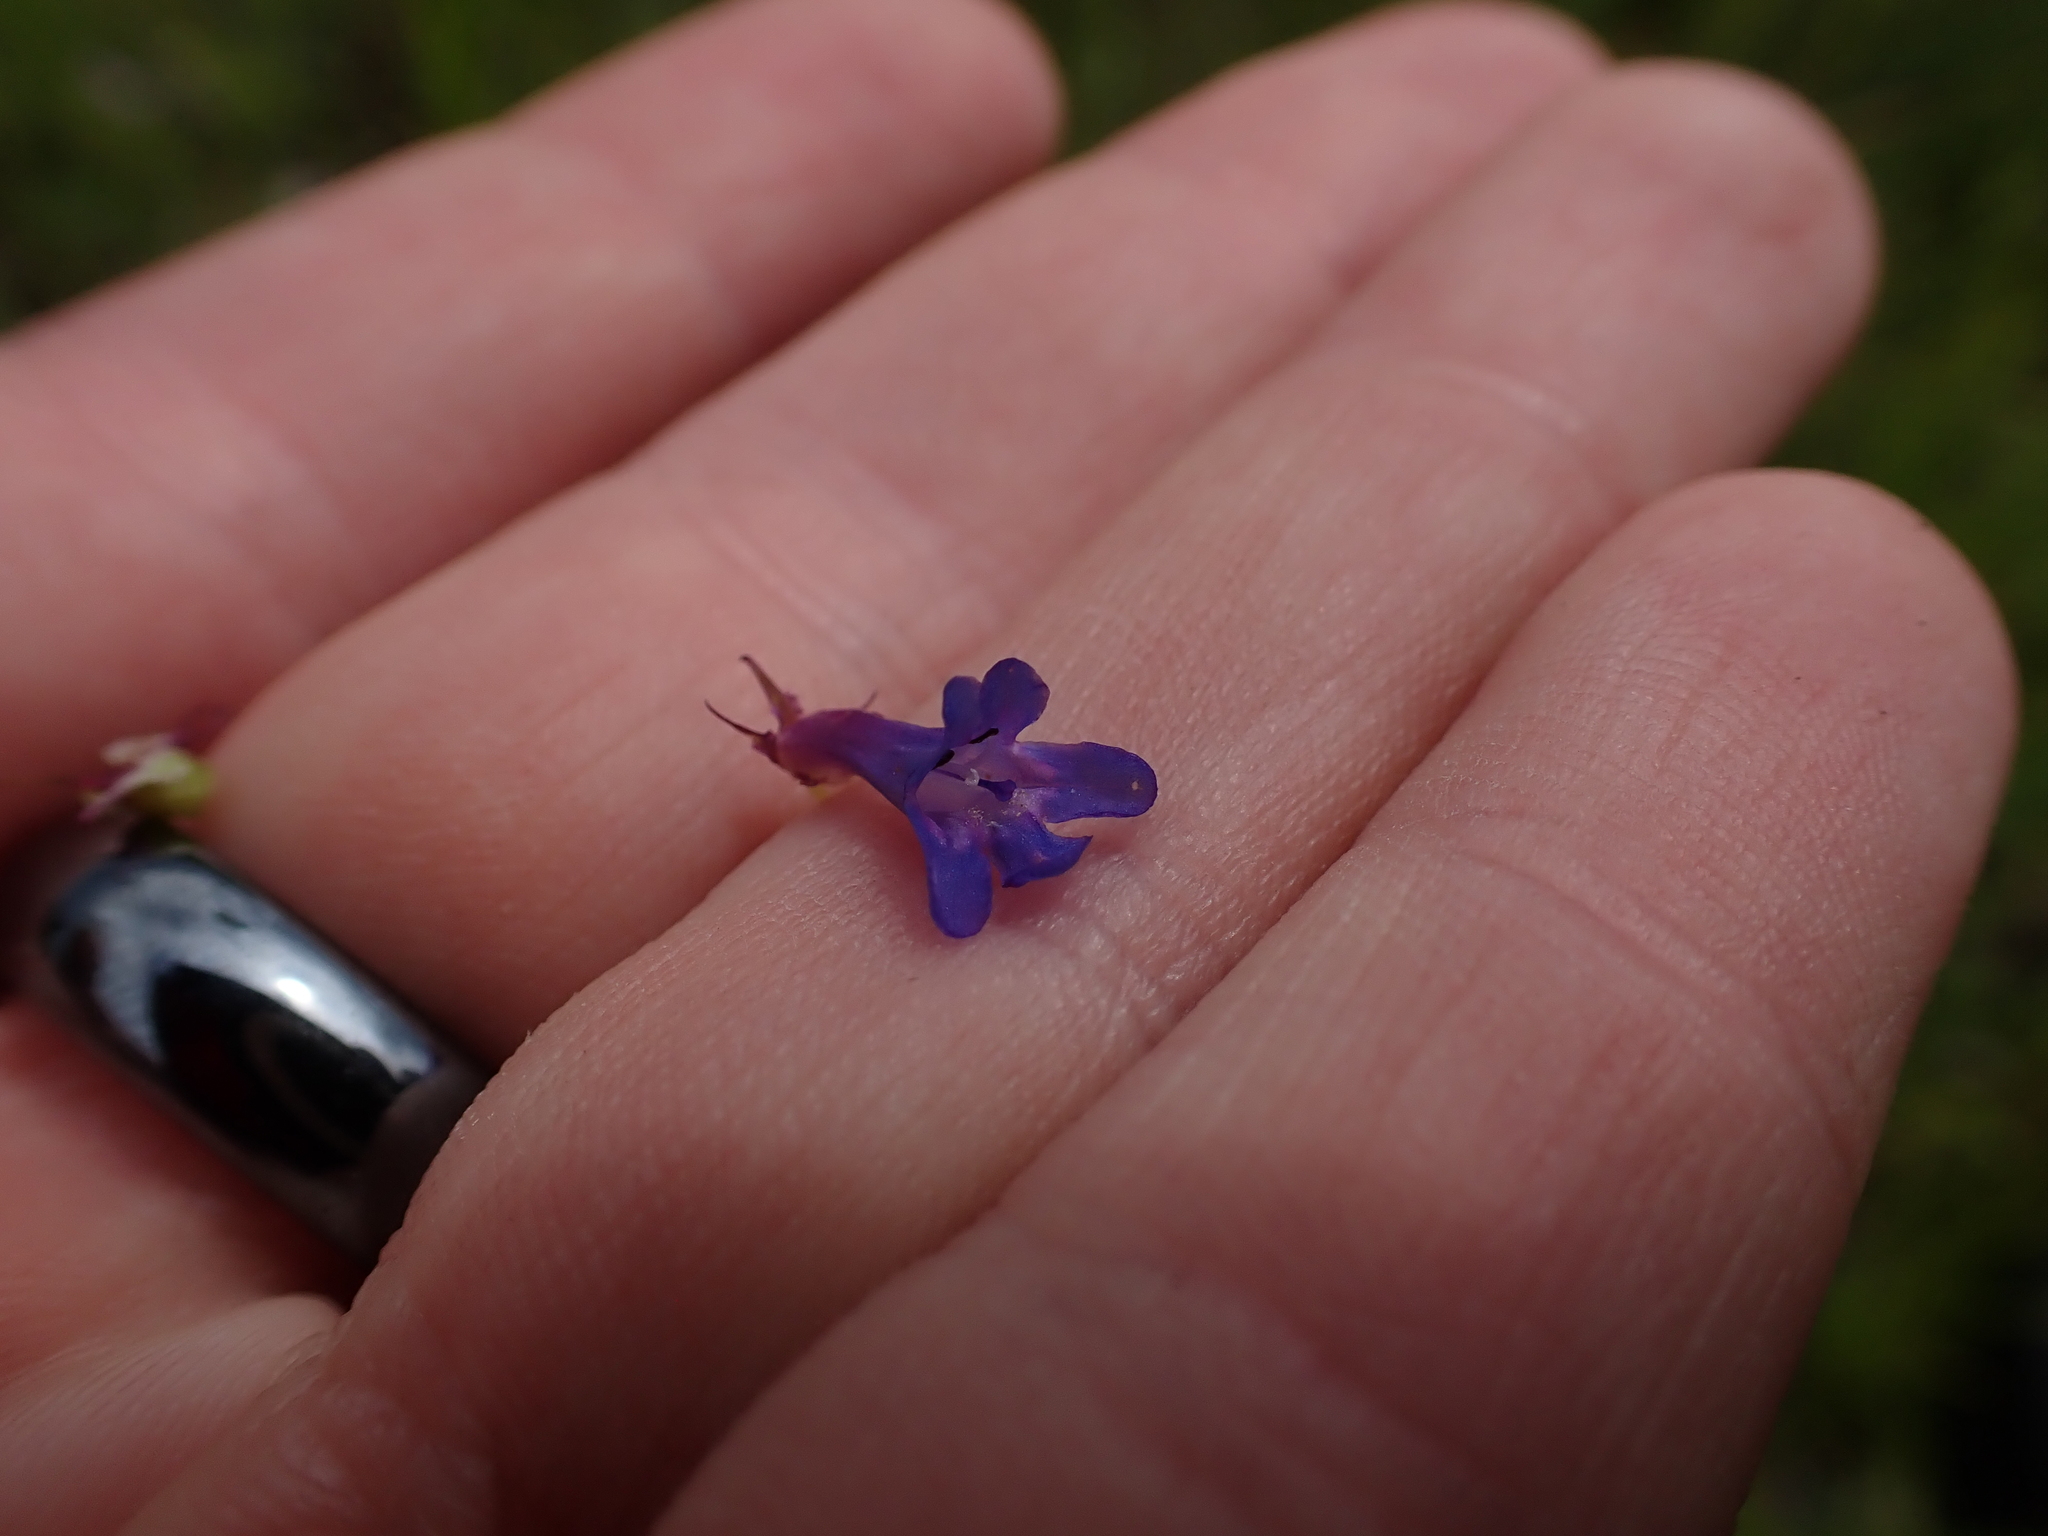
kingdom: Plantae
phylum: Tracheophyta
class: Magnoliopsida
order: Lamiales
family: Plantaginaceae
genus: Penstemon
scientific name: Penstemon procerus
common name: Small-flower penstemon
